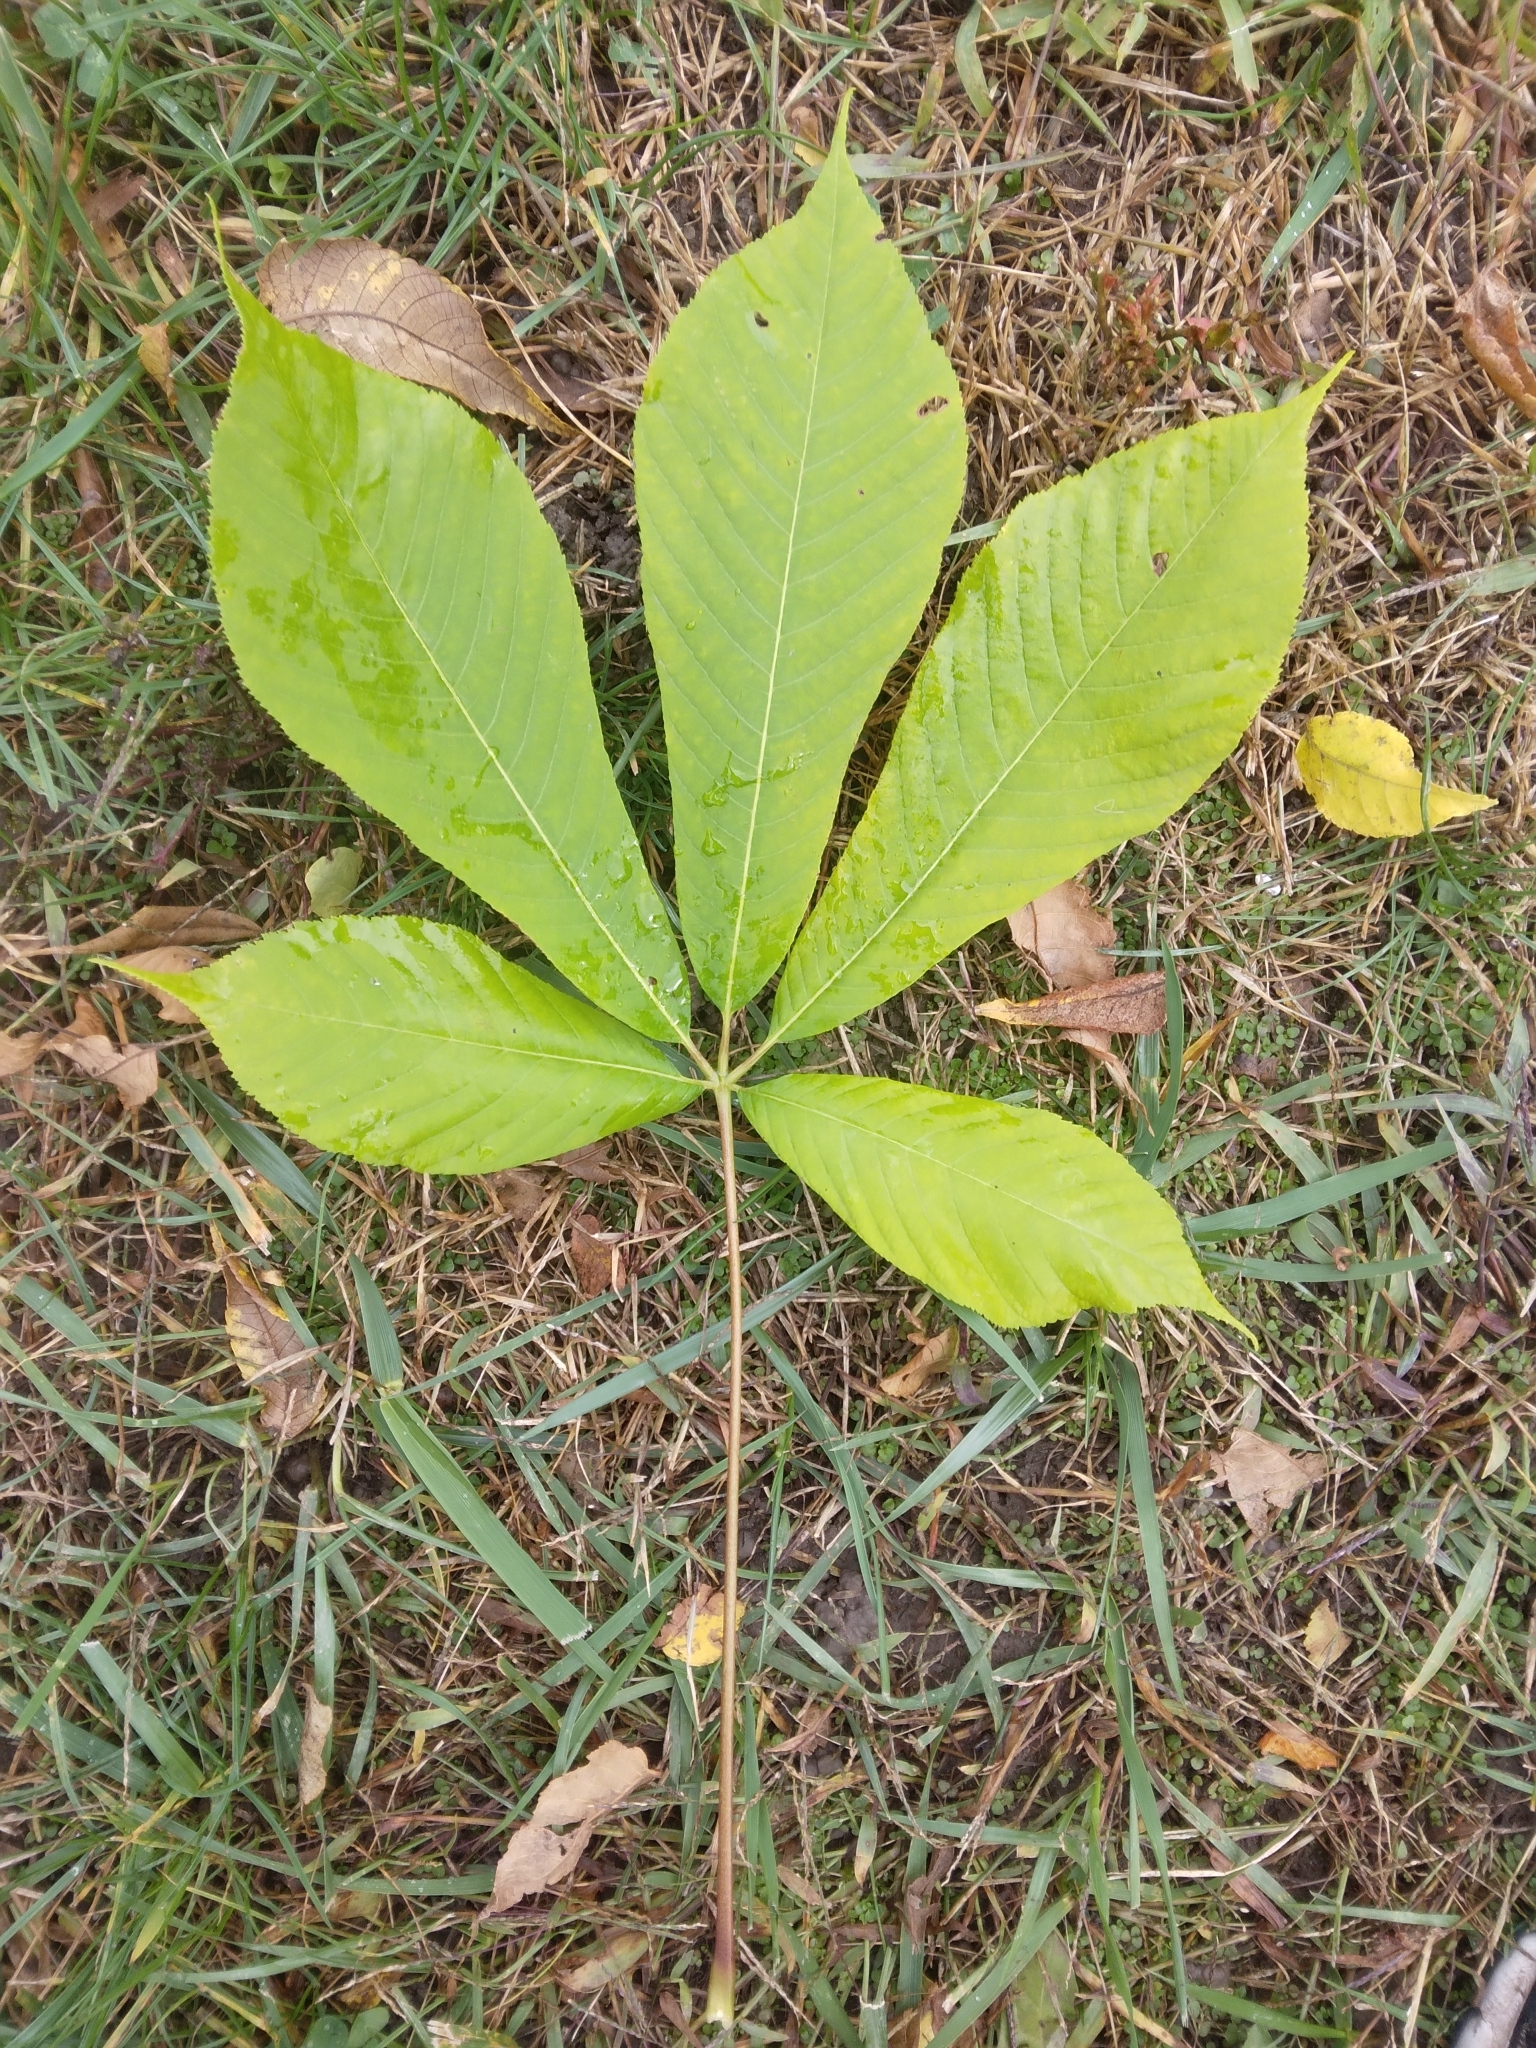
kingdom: Plantae
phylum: Tracheophyta
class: Magnoliopsida
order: Sapindales
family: Sapindaceae
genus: Aesculus
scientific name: Aesculus hippocastanum
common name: Horse-chestnut
